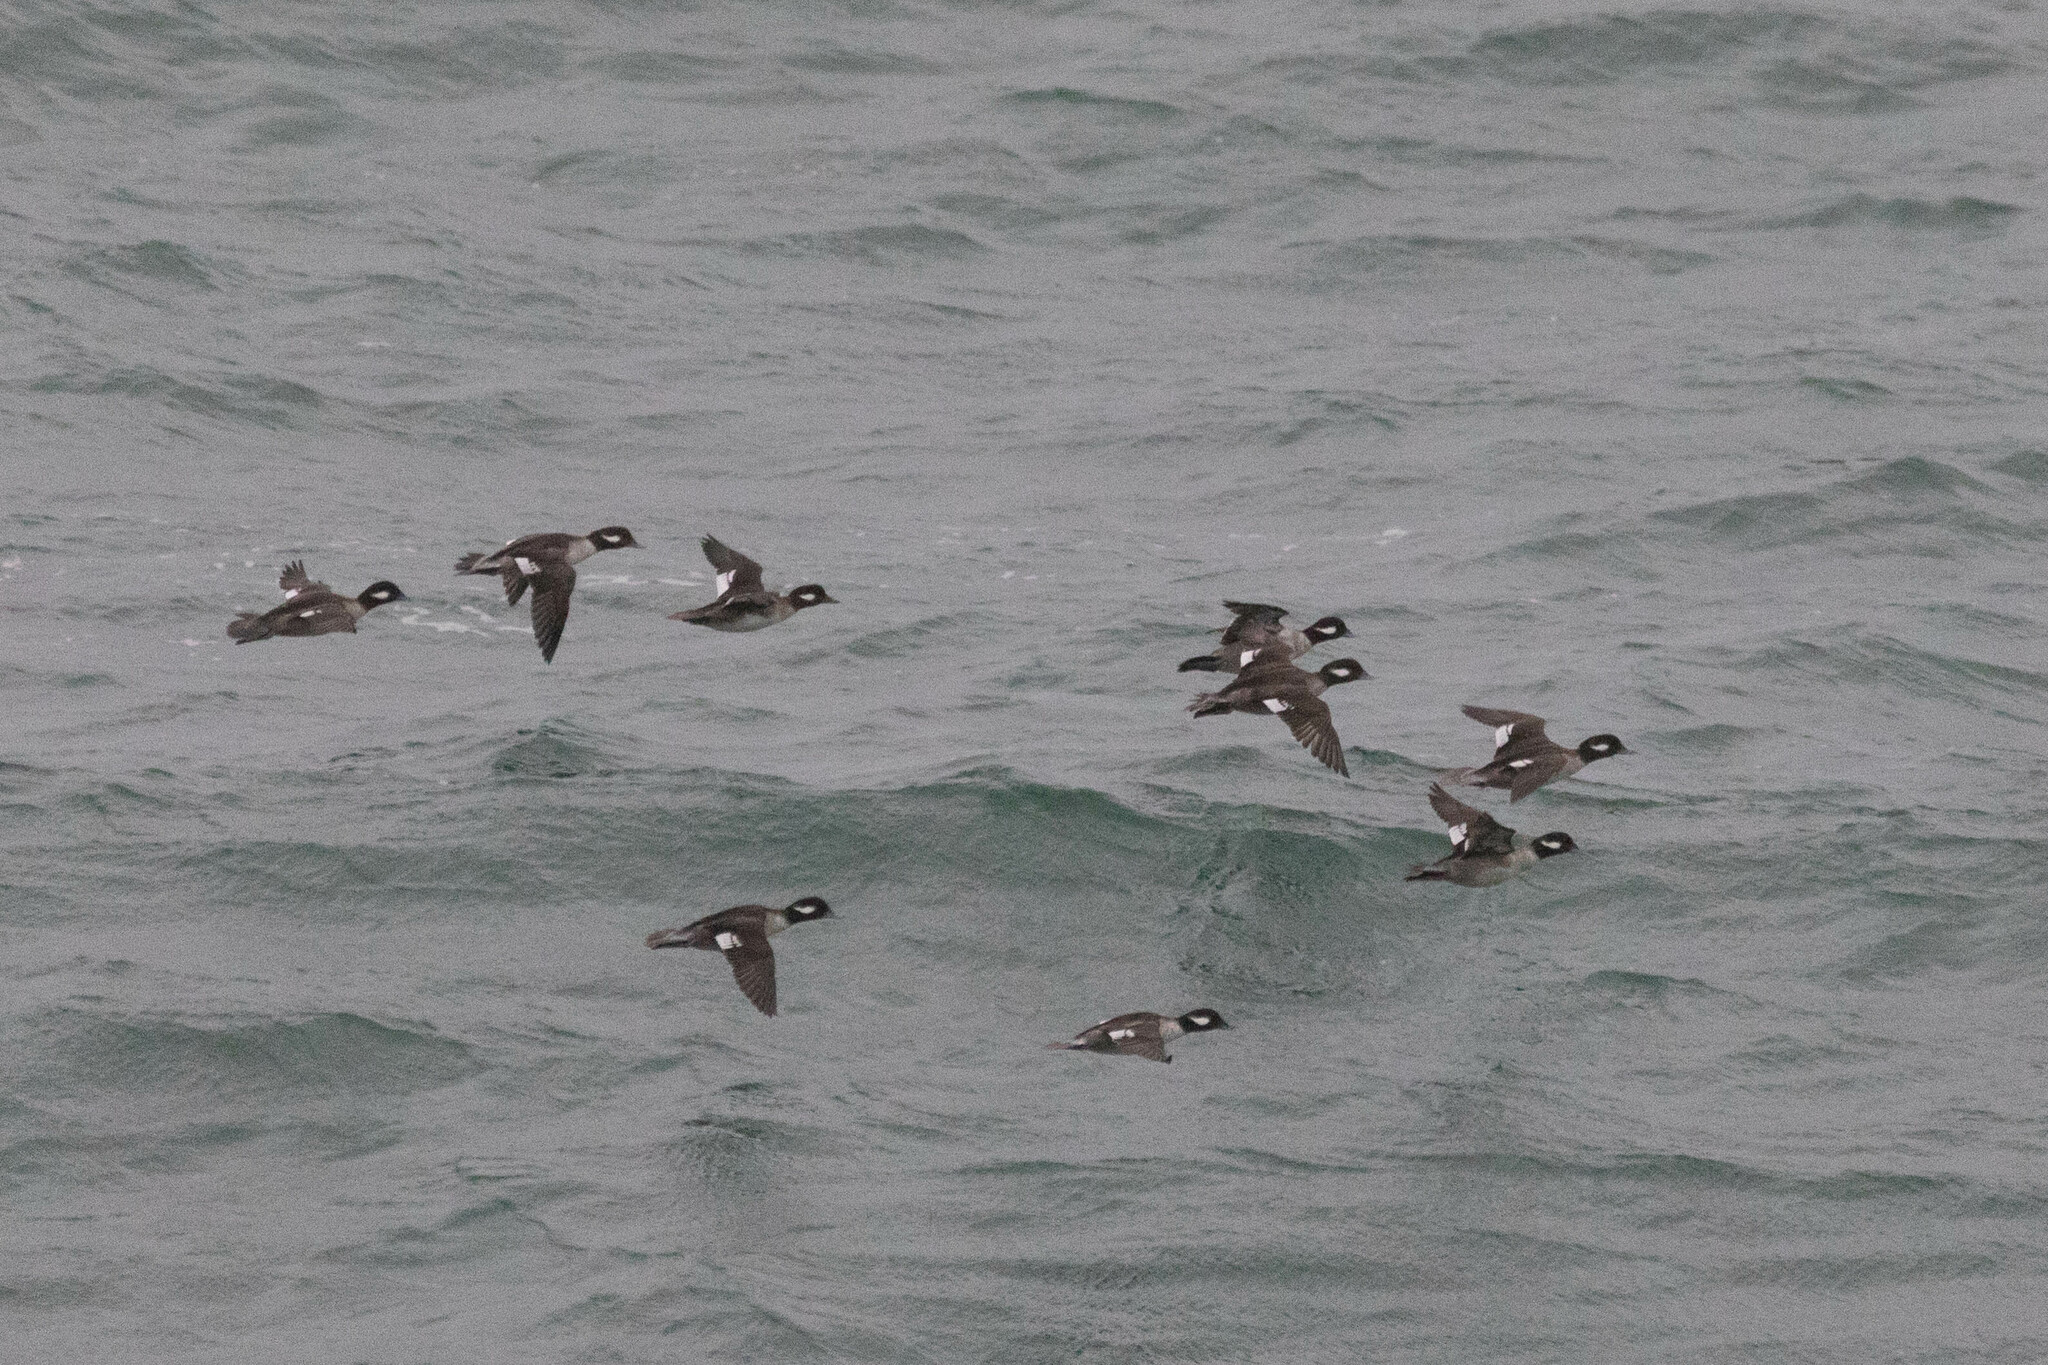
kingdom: Animalia
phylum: Chordata
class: Aves
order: Anseriformes
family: Anatidae
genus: Bucephala
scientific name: Bucephala albeola
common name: Bufflehead
